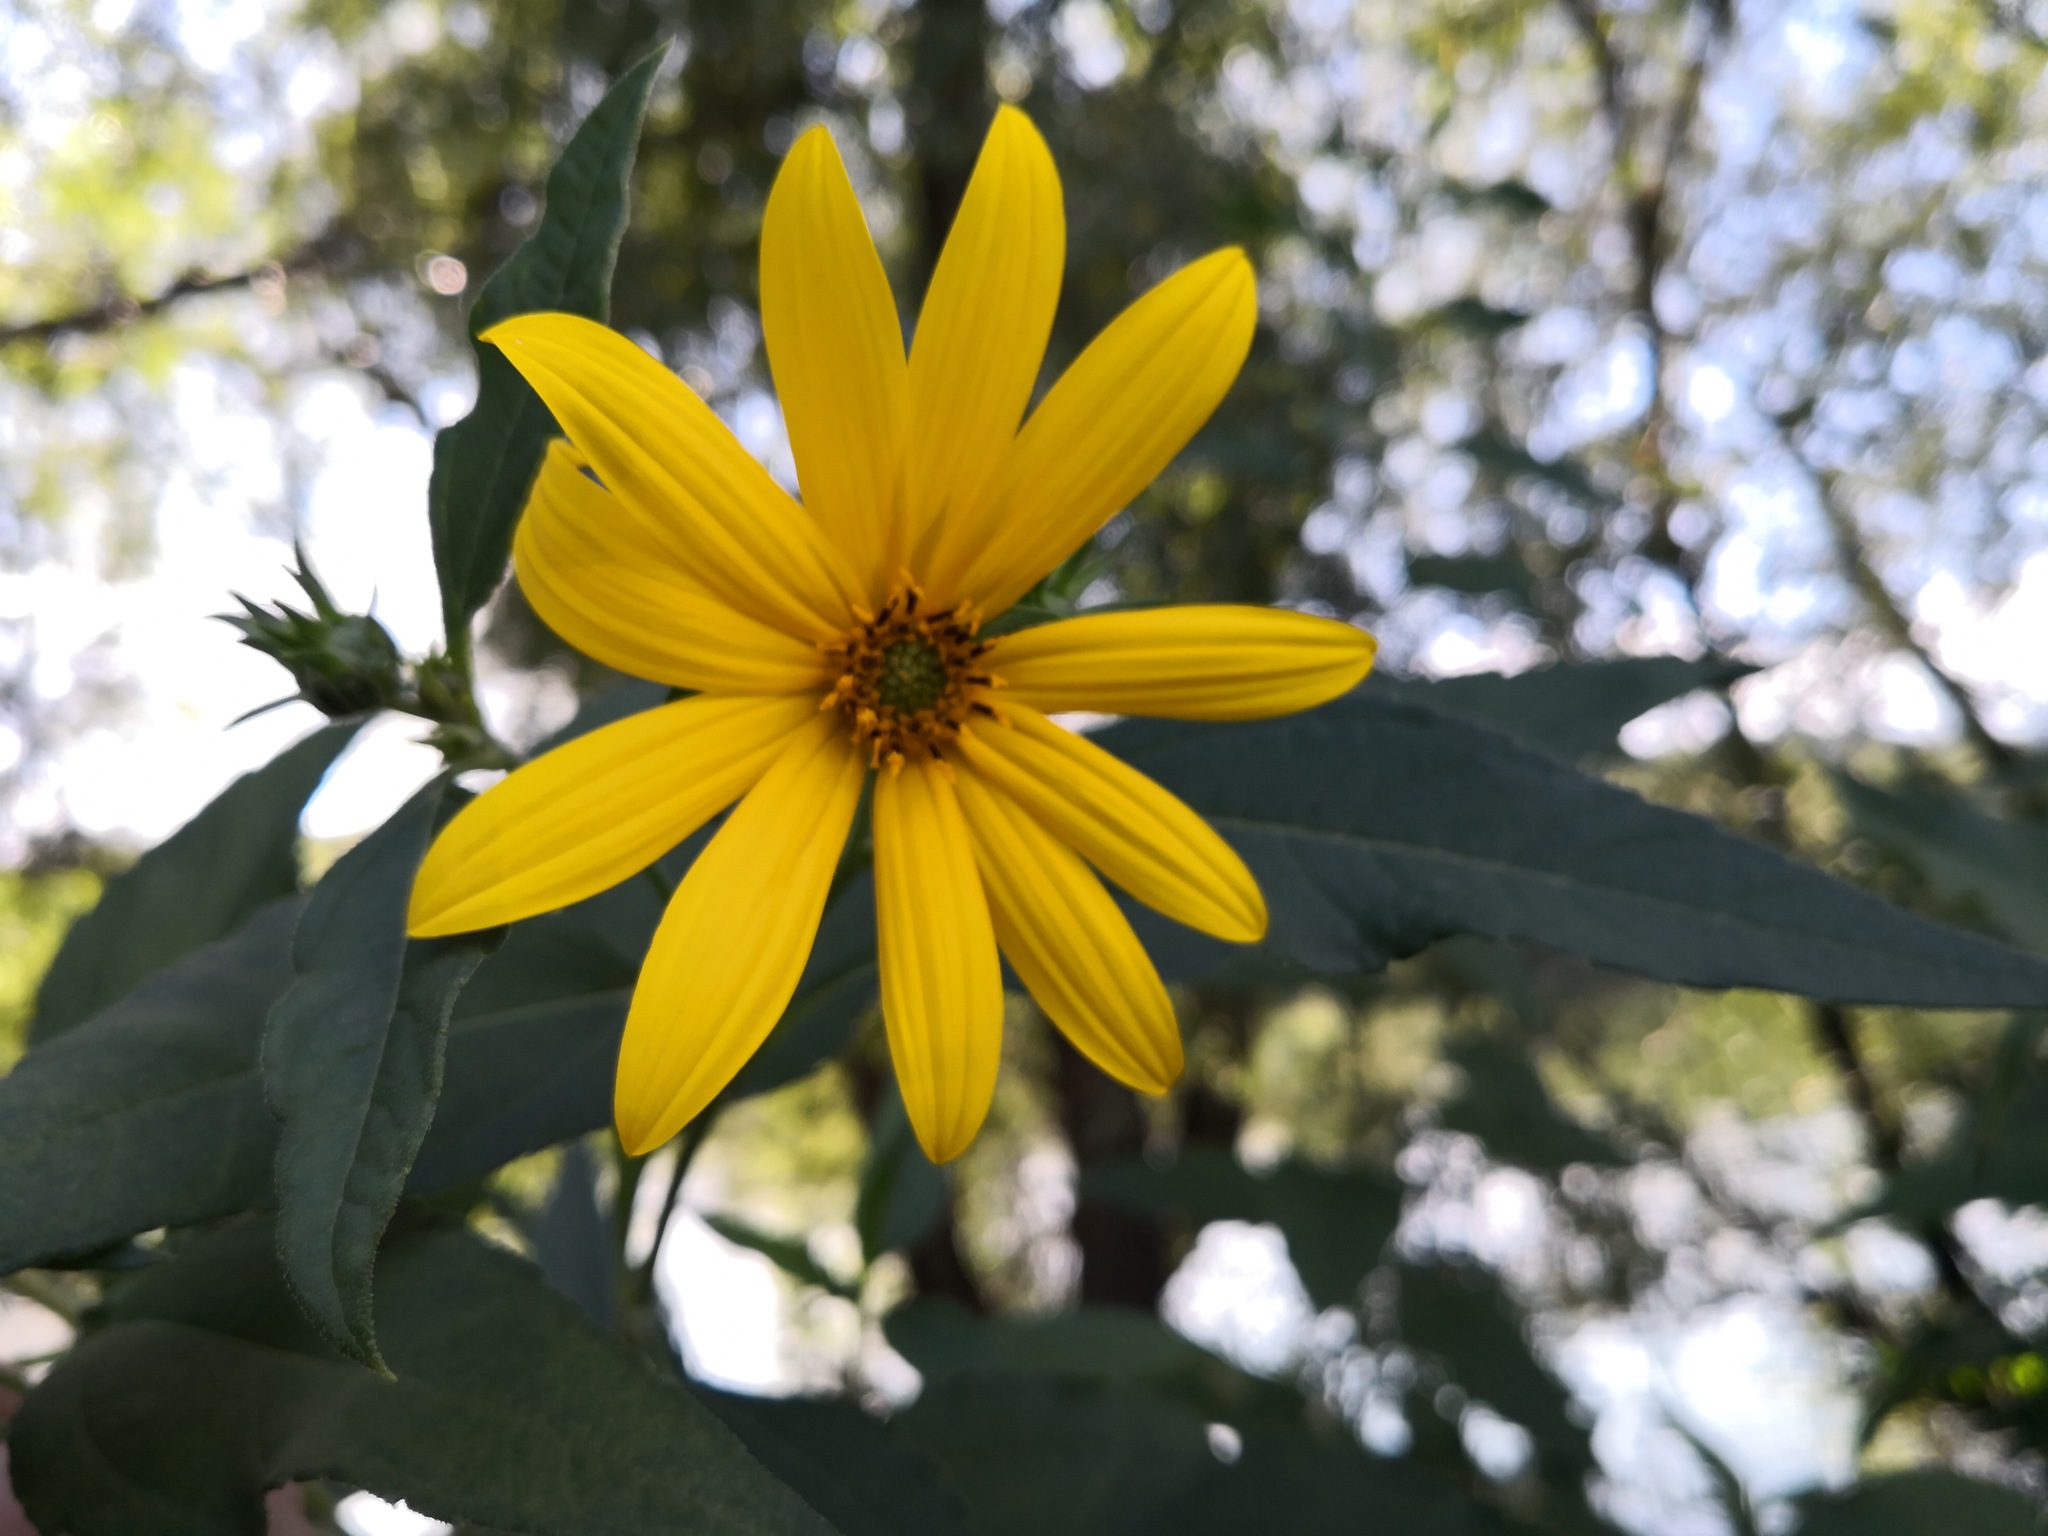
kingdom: Plantae
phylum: Tracheophyta
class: Magnoliopsida
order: Asterales
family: Asteraceae
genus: Helianthus
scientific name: Helianthus tuberosus
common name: Jerusalem artichoke
